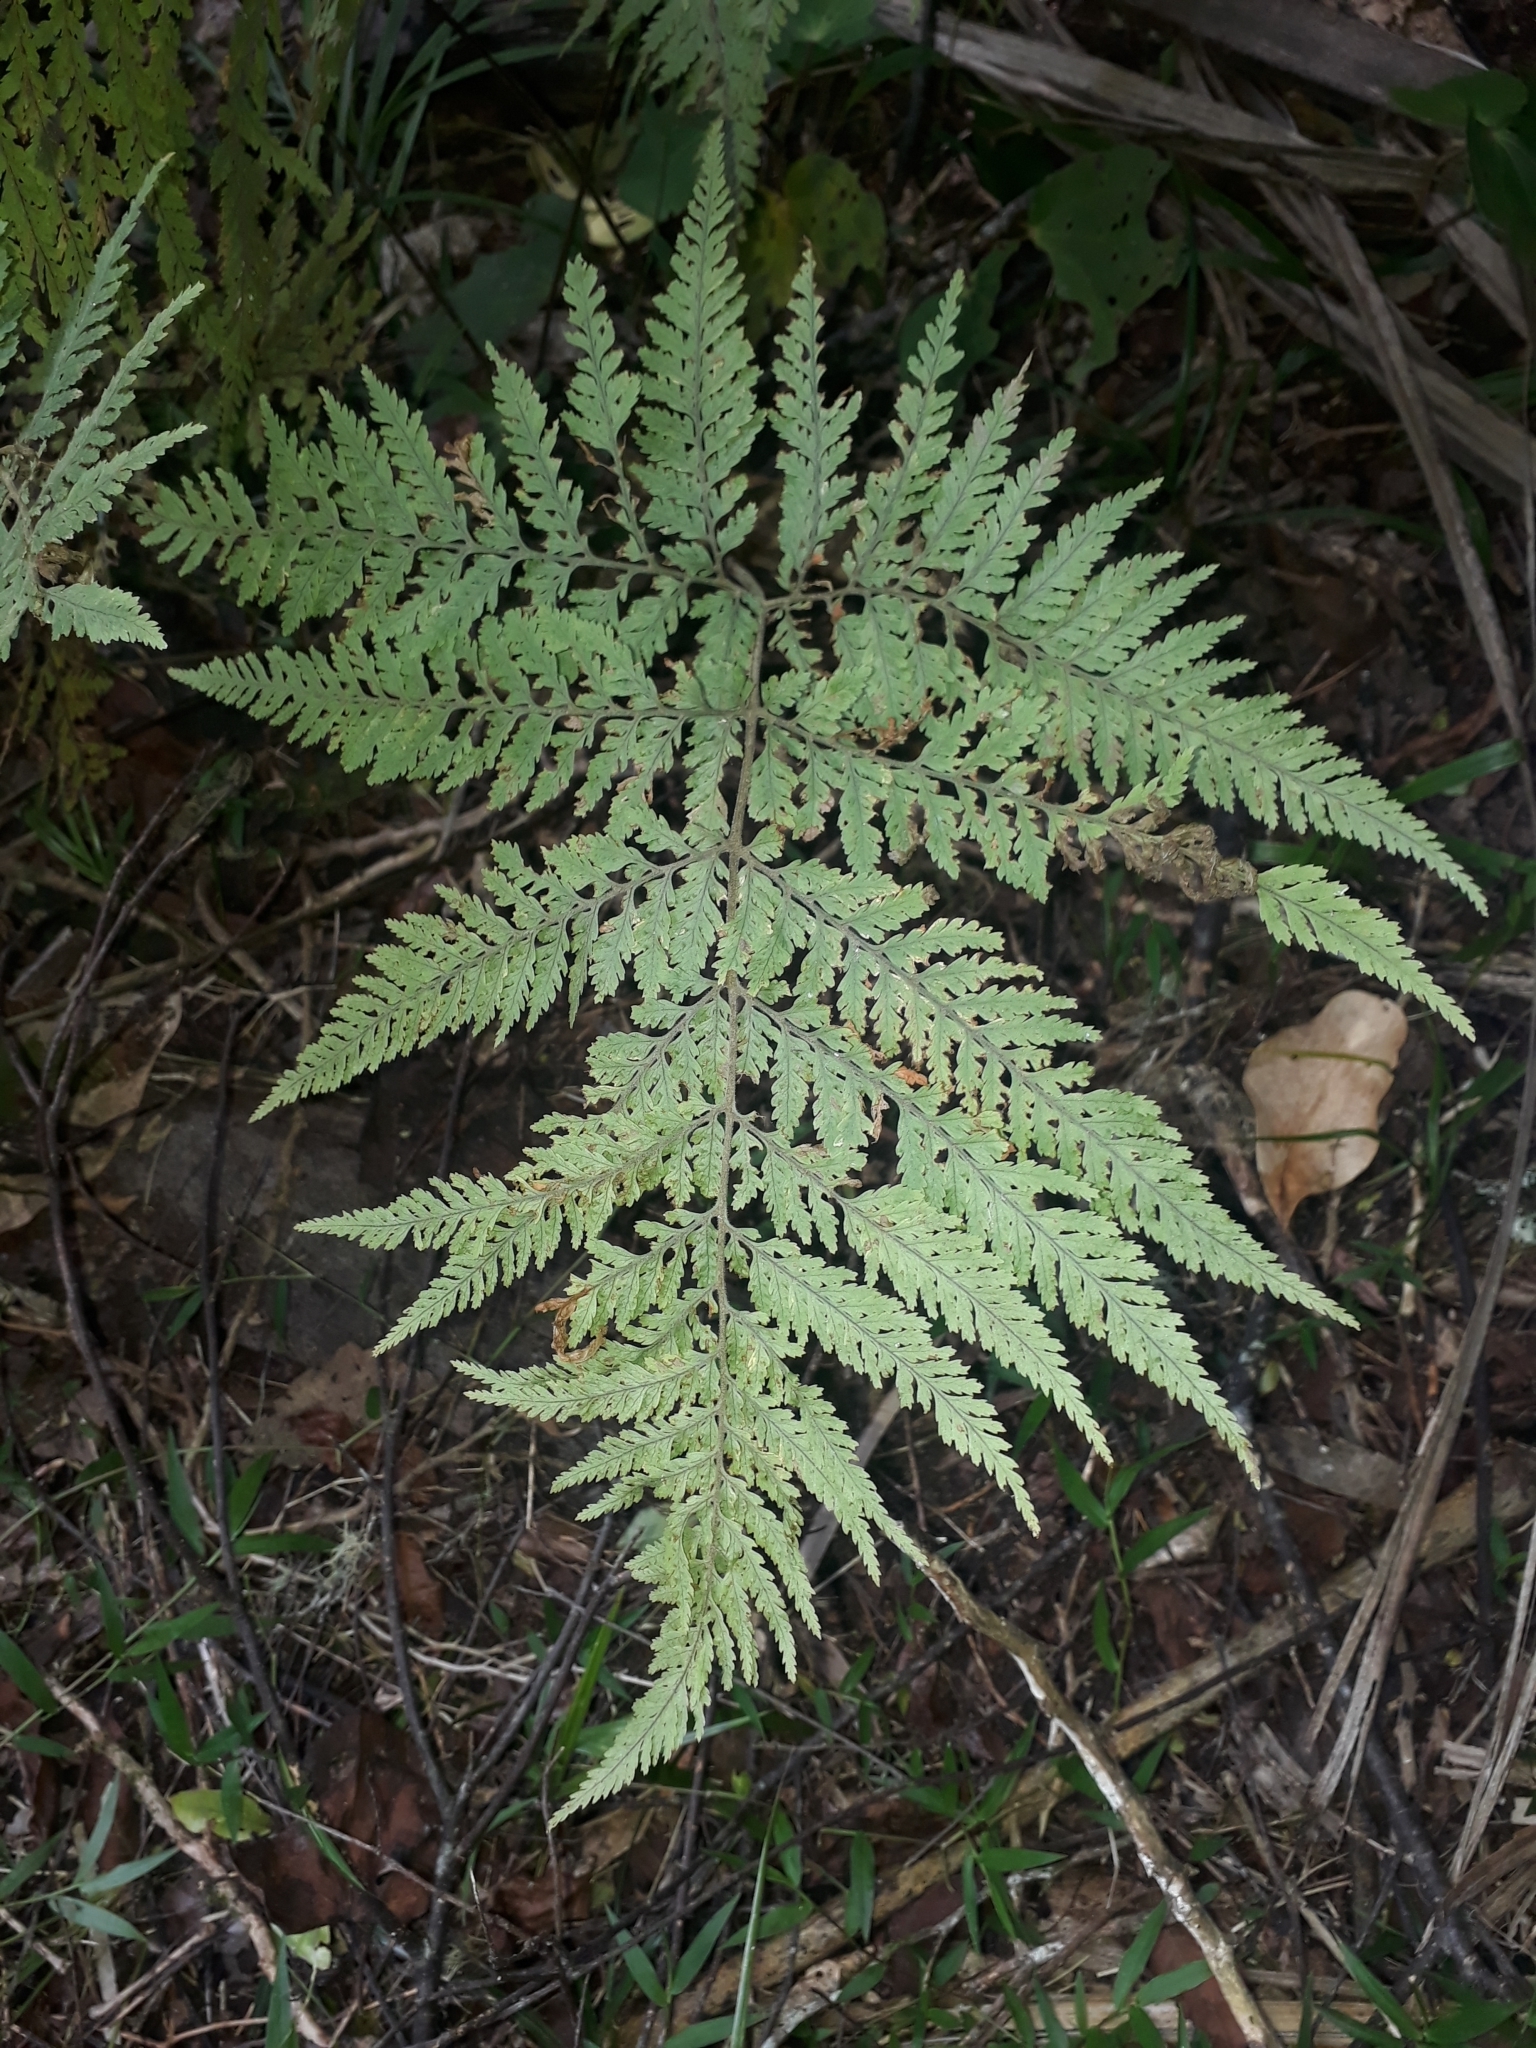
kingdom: Plantae
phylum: Tracheophyta
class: Polypodiopsida
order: Polypodiales
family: Dryopteridaceae
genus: Parapolystichum
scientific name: Parapolystichum microsorum
